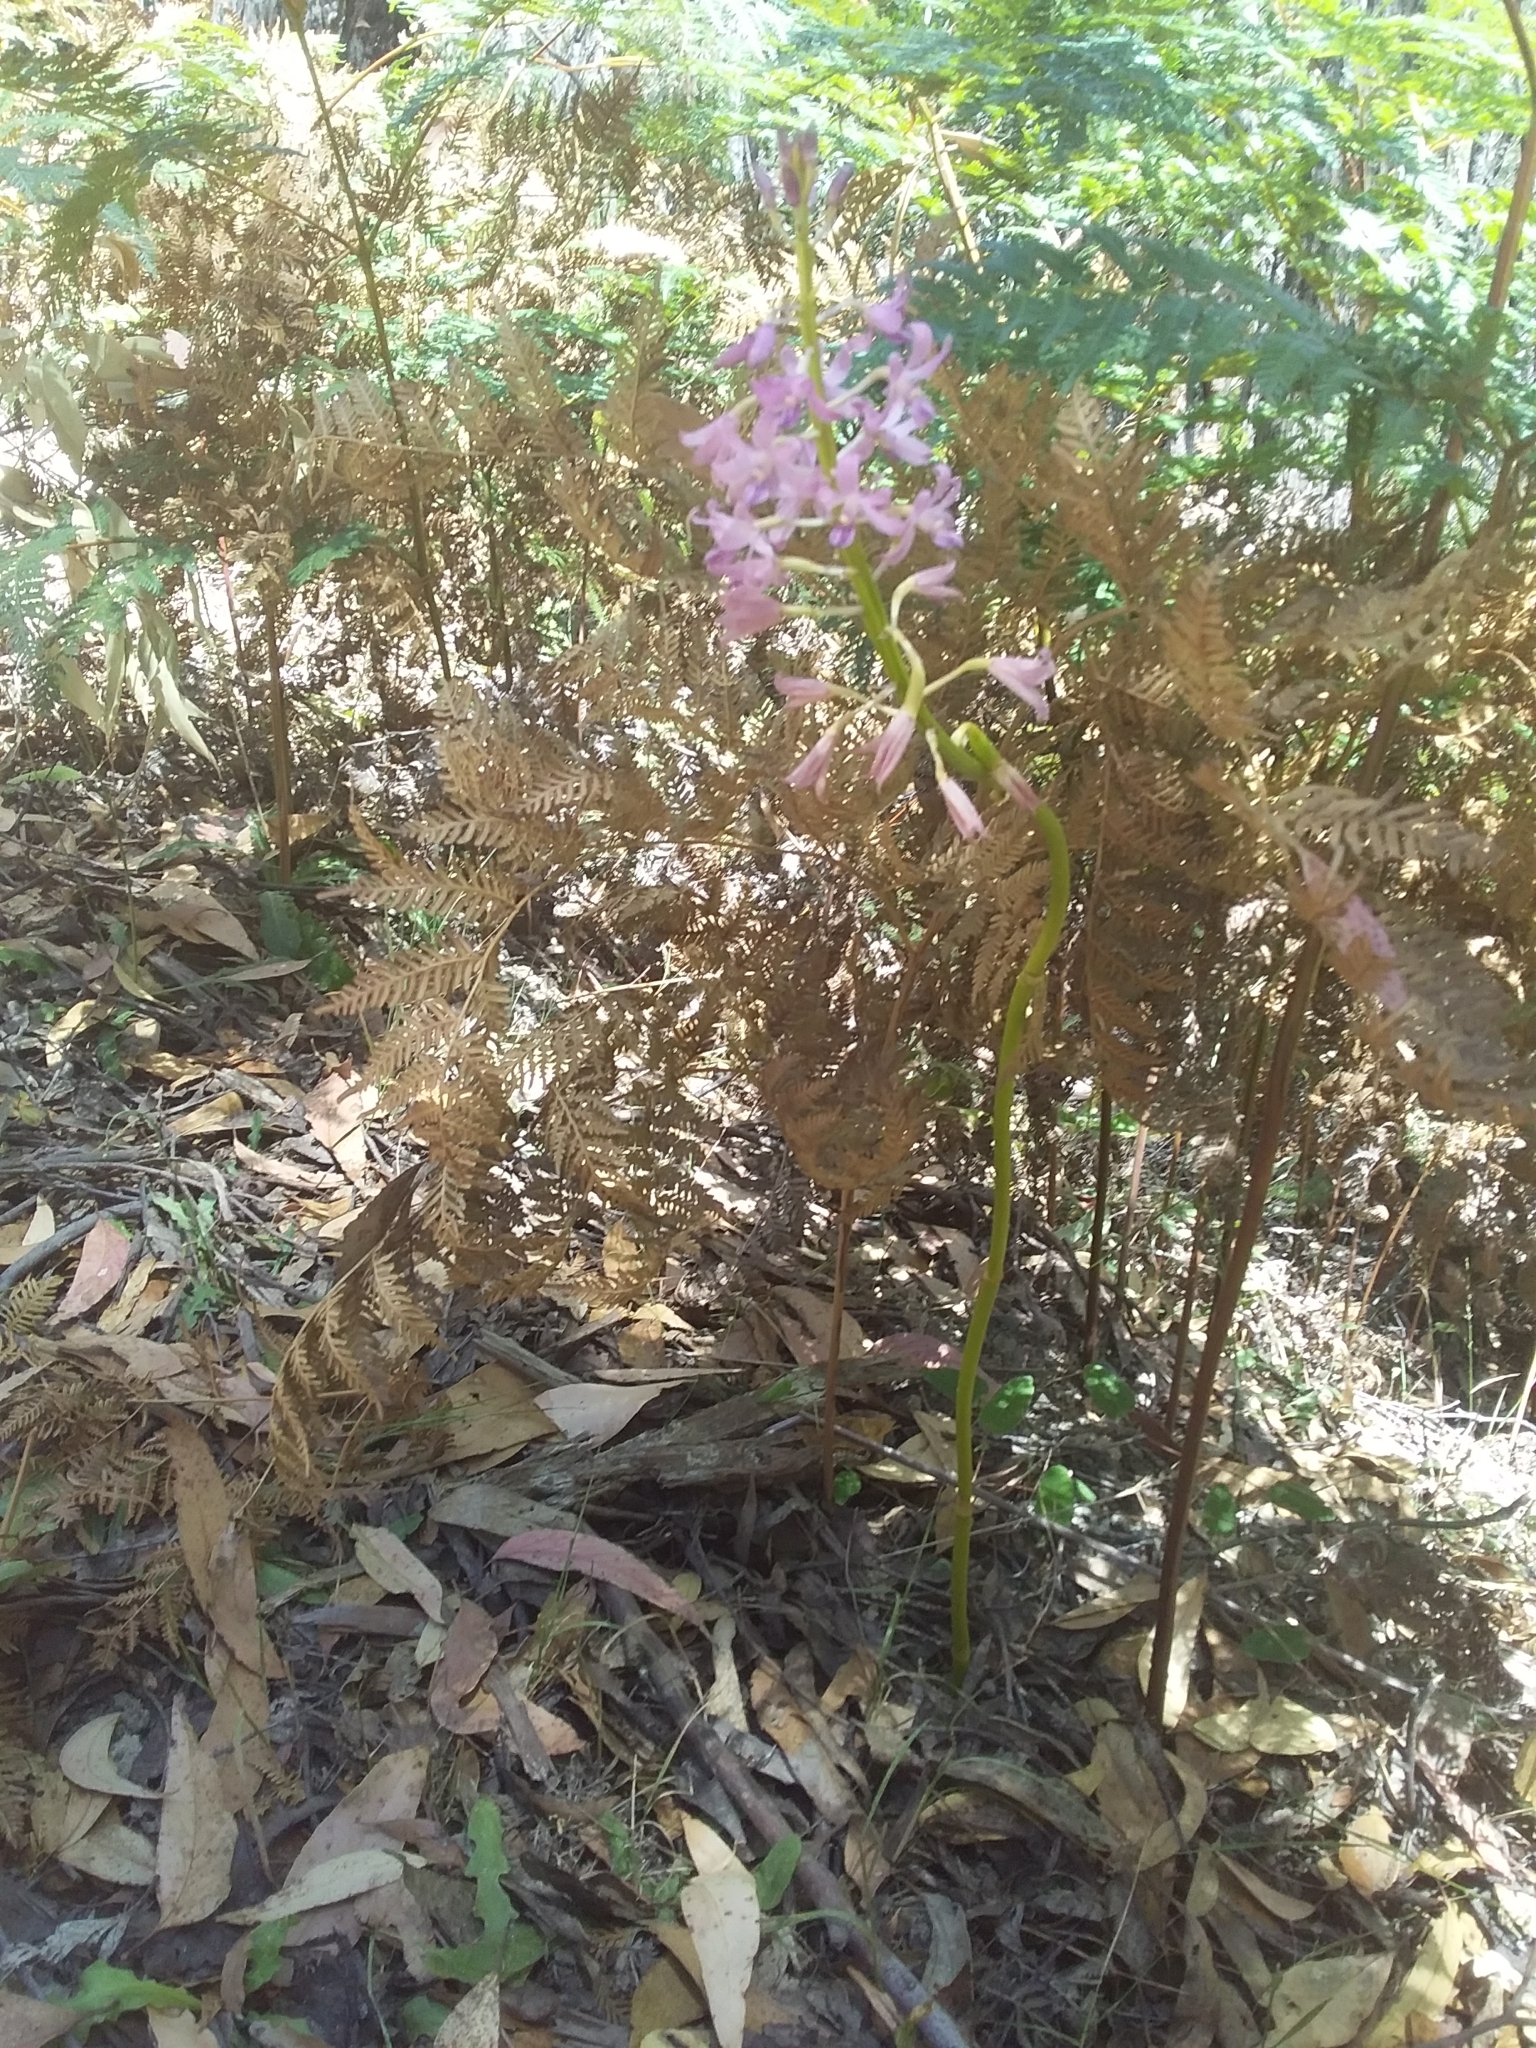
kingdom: Plantae
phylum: Tracheophyta
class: Liliopsida
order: Asparagales
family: Orchidaceae
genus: Dipodium
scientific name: Dipodium roseum
